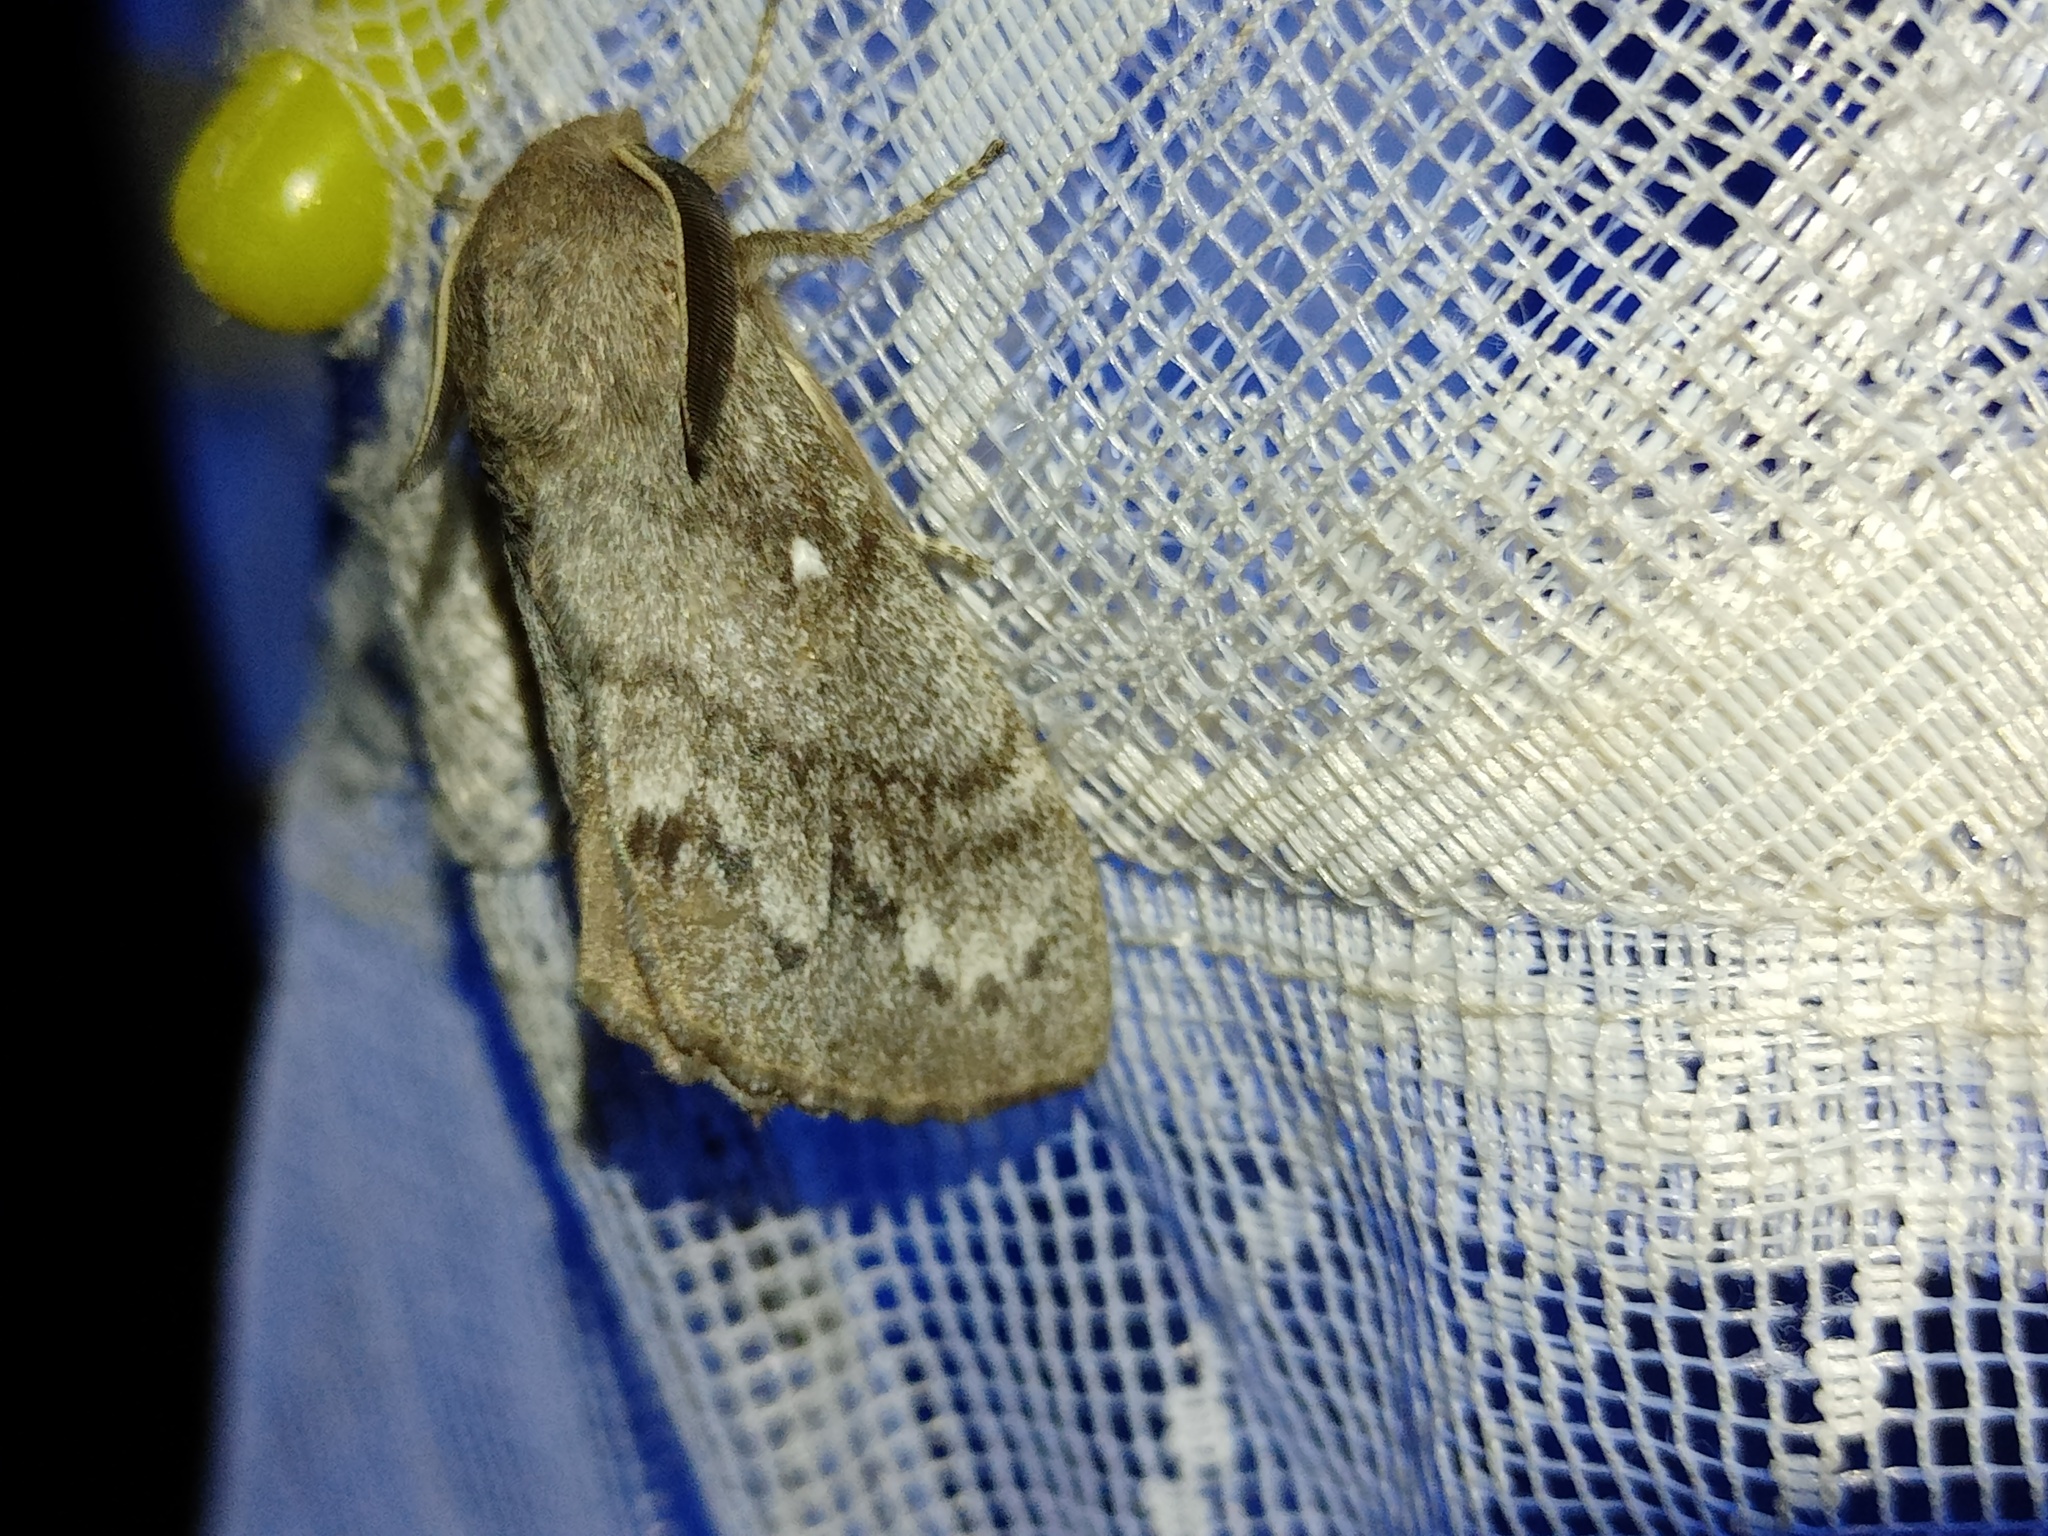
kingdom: Animalia
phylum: Arthropoda
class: Insecta
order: Lepidoptera
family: Lasiocampidae
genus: Dendrolimus
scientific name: Dendrolimus pini
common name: Pine-tree lappet
